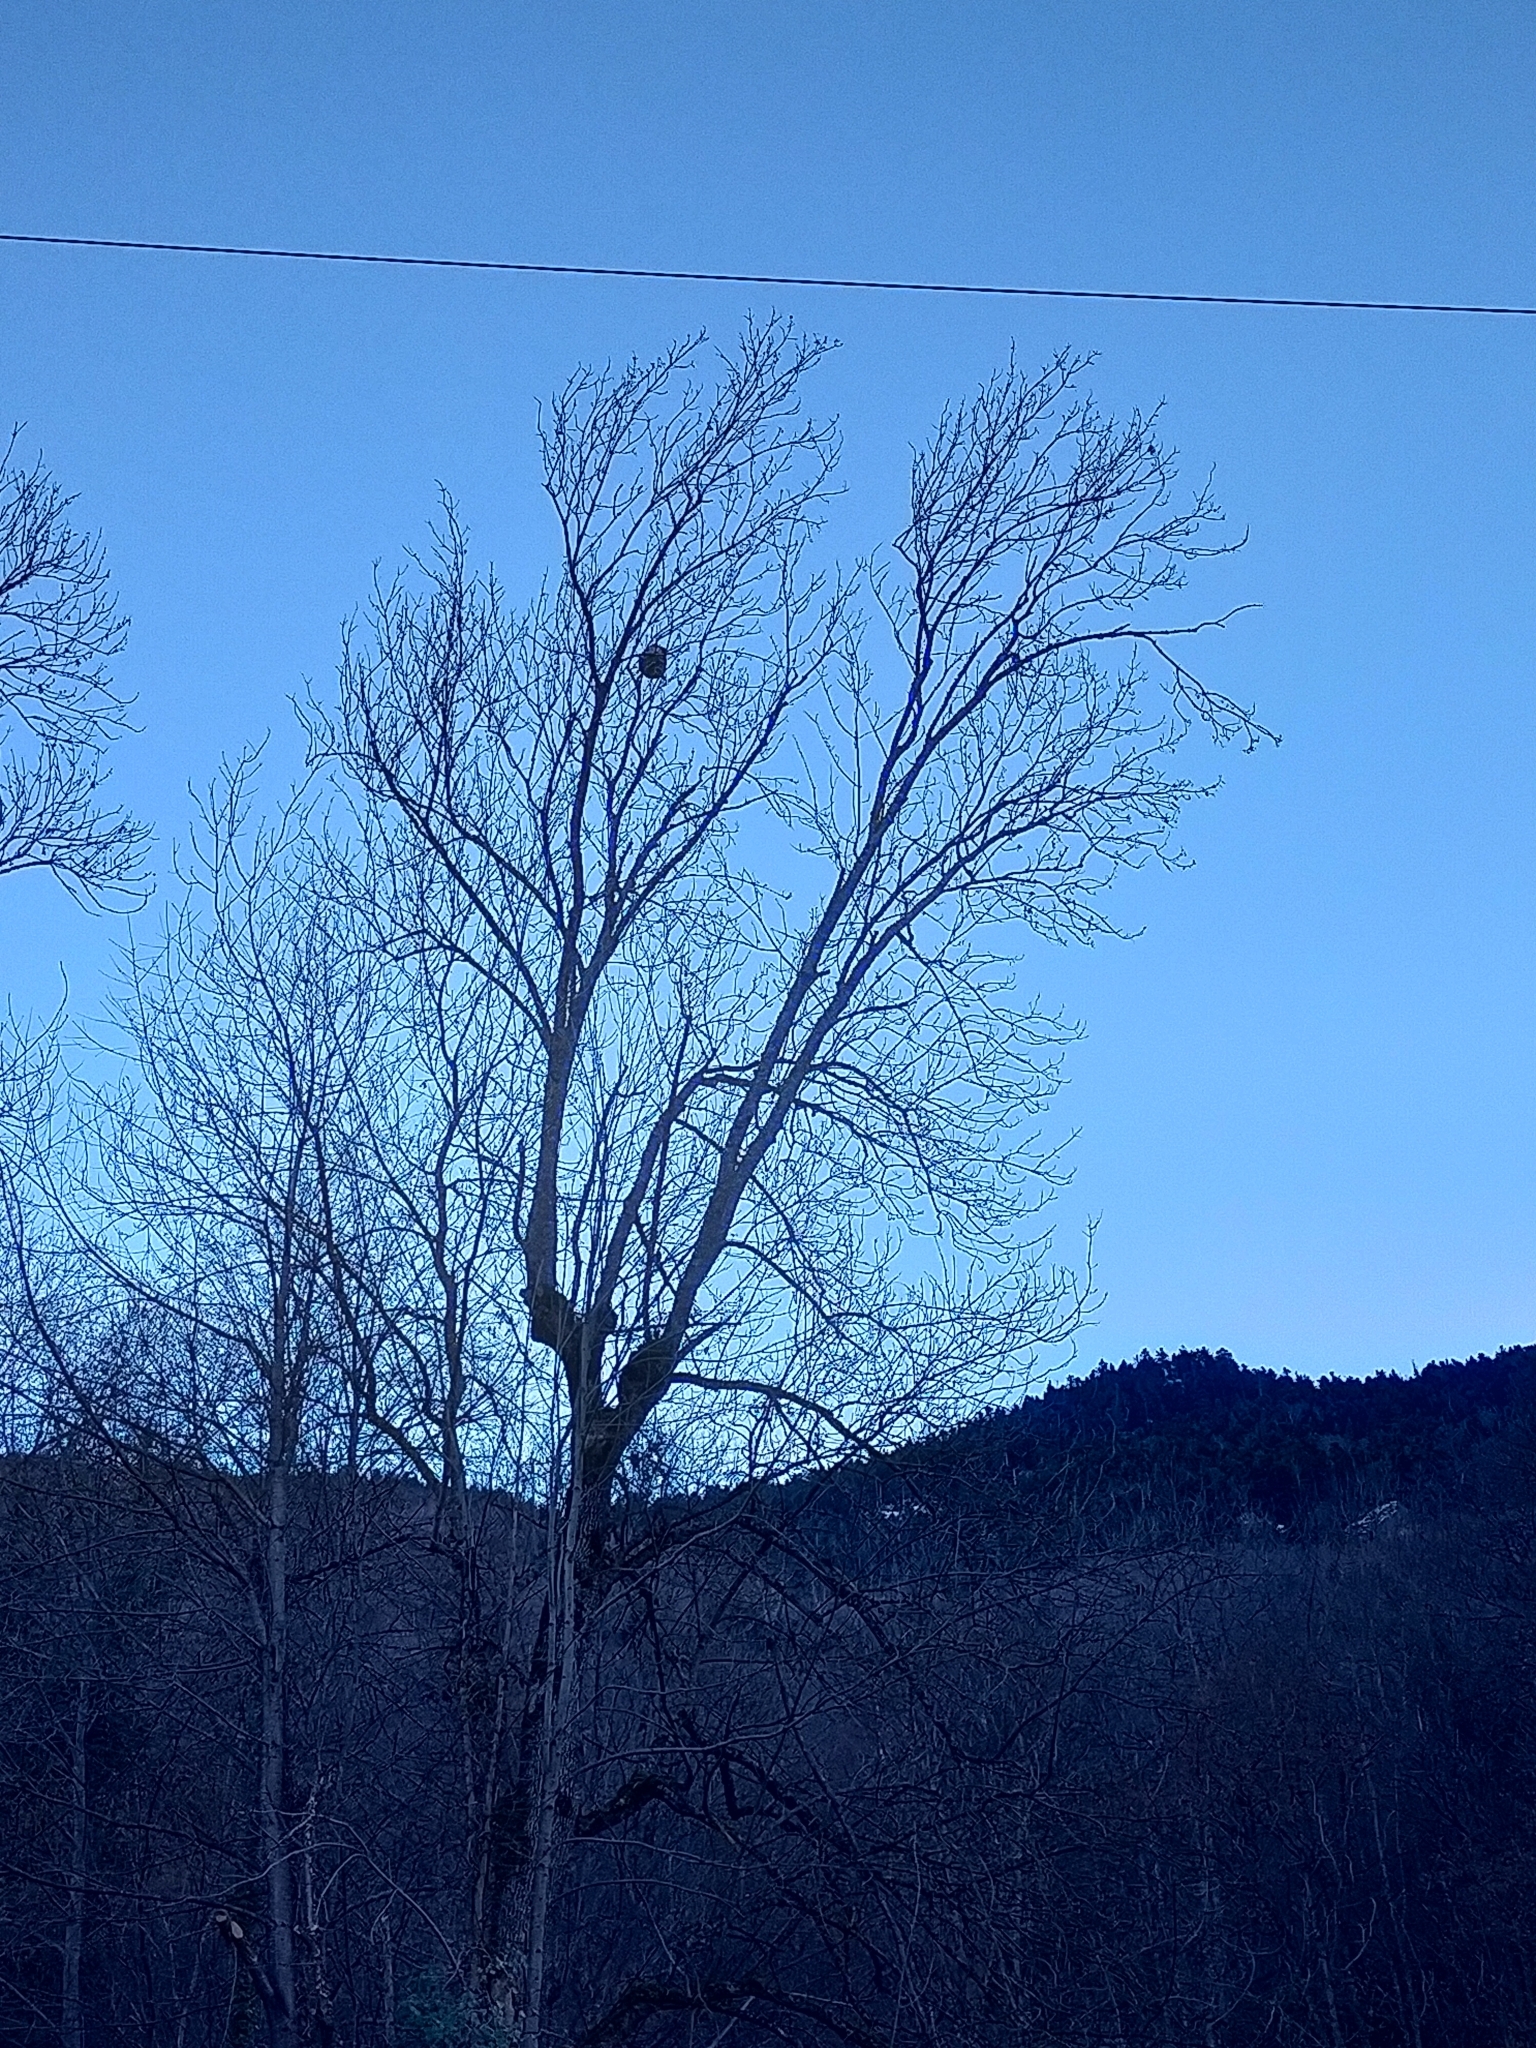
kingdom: Animalia
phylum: Arthropoda
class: Insecta
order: Hymenoptera
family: Vespidae
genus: Vespa
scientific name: Vespa velutina
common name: Asian hornet
